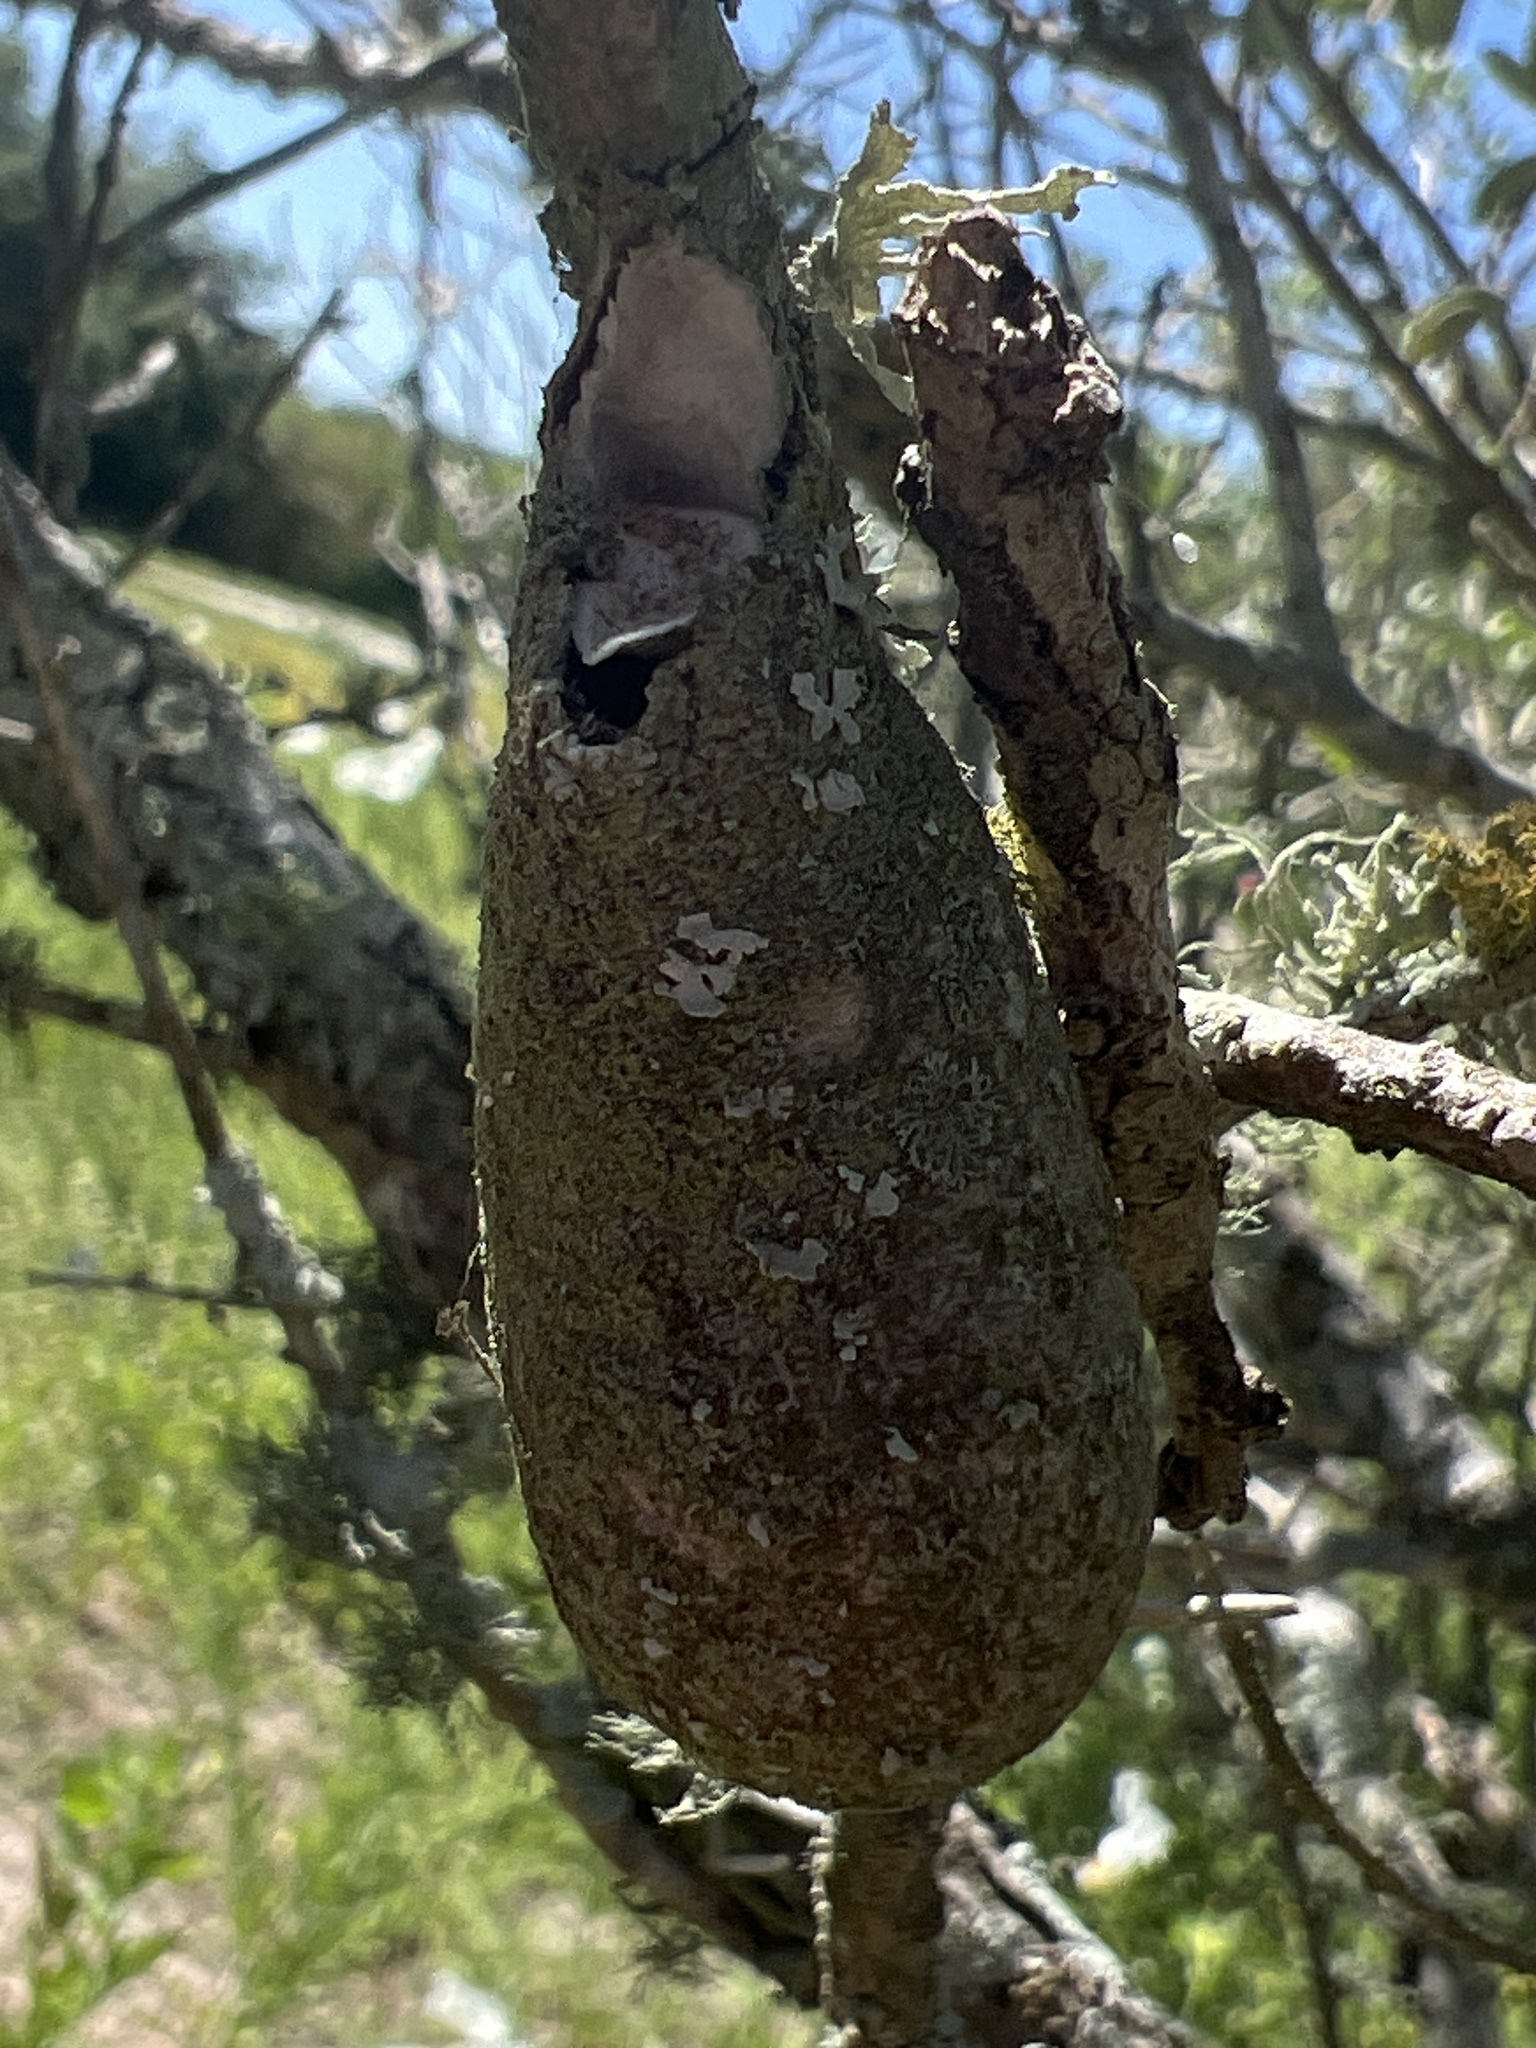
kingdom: Animalia
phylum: Arthropoda
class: Insecta
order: Lepidoptera
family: Saturniidae
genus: Eupackardia
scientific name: Eupackardia calleta
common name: Calleta silkmoth
